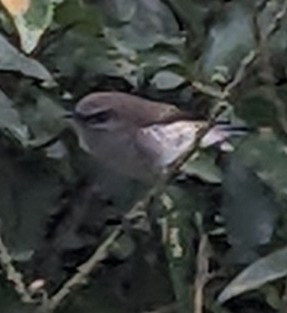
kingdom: Animalia
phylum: Chordata
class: Aves
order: Passeriformes
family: Acanthizidae
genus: Gerygone
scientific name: Gerygone igata
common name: Grey gerygone
